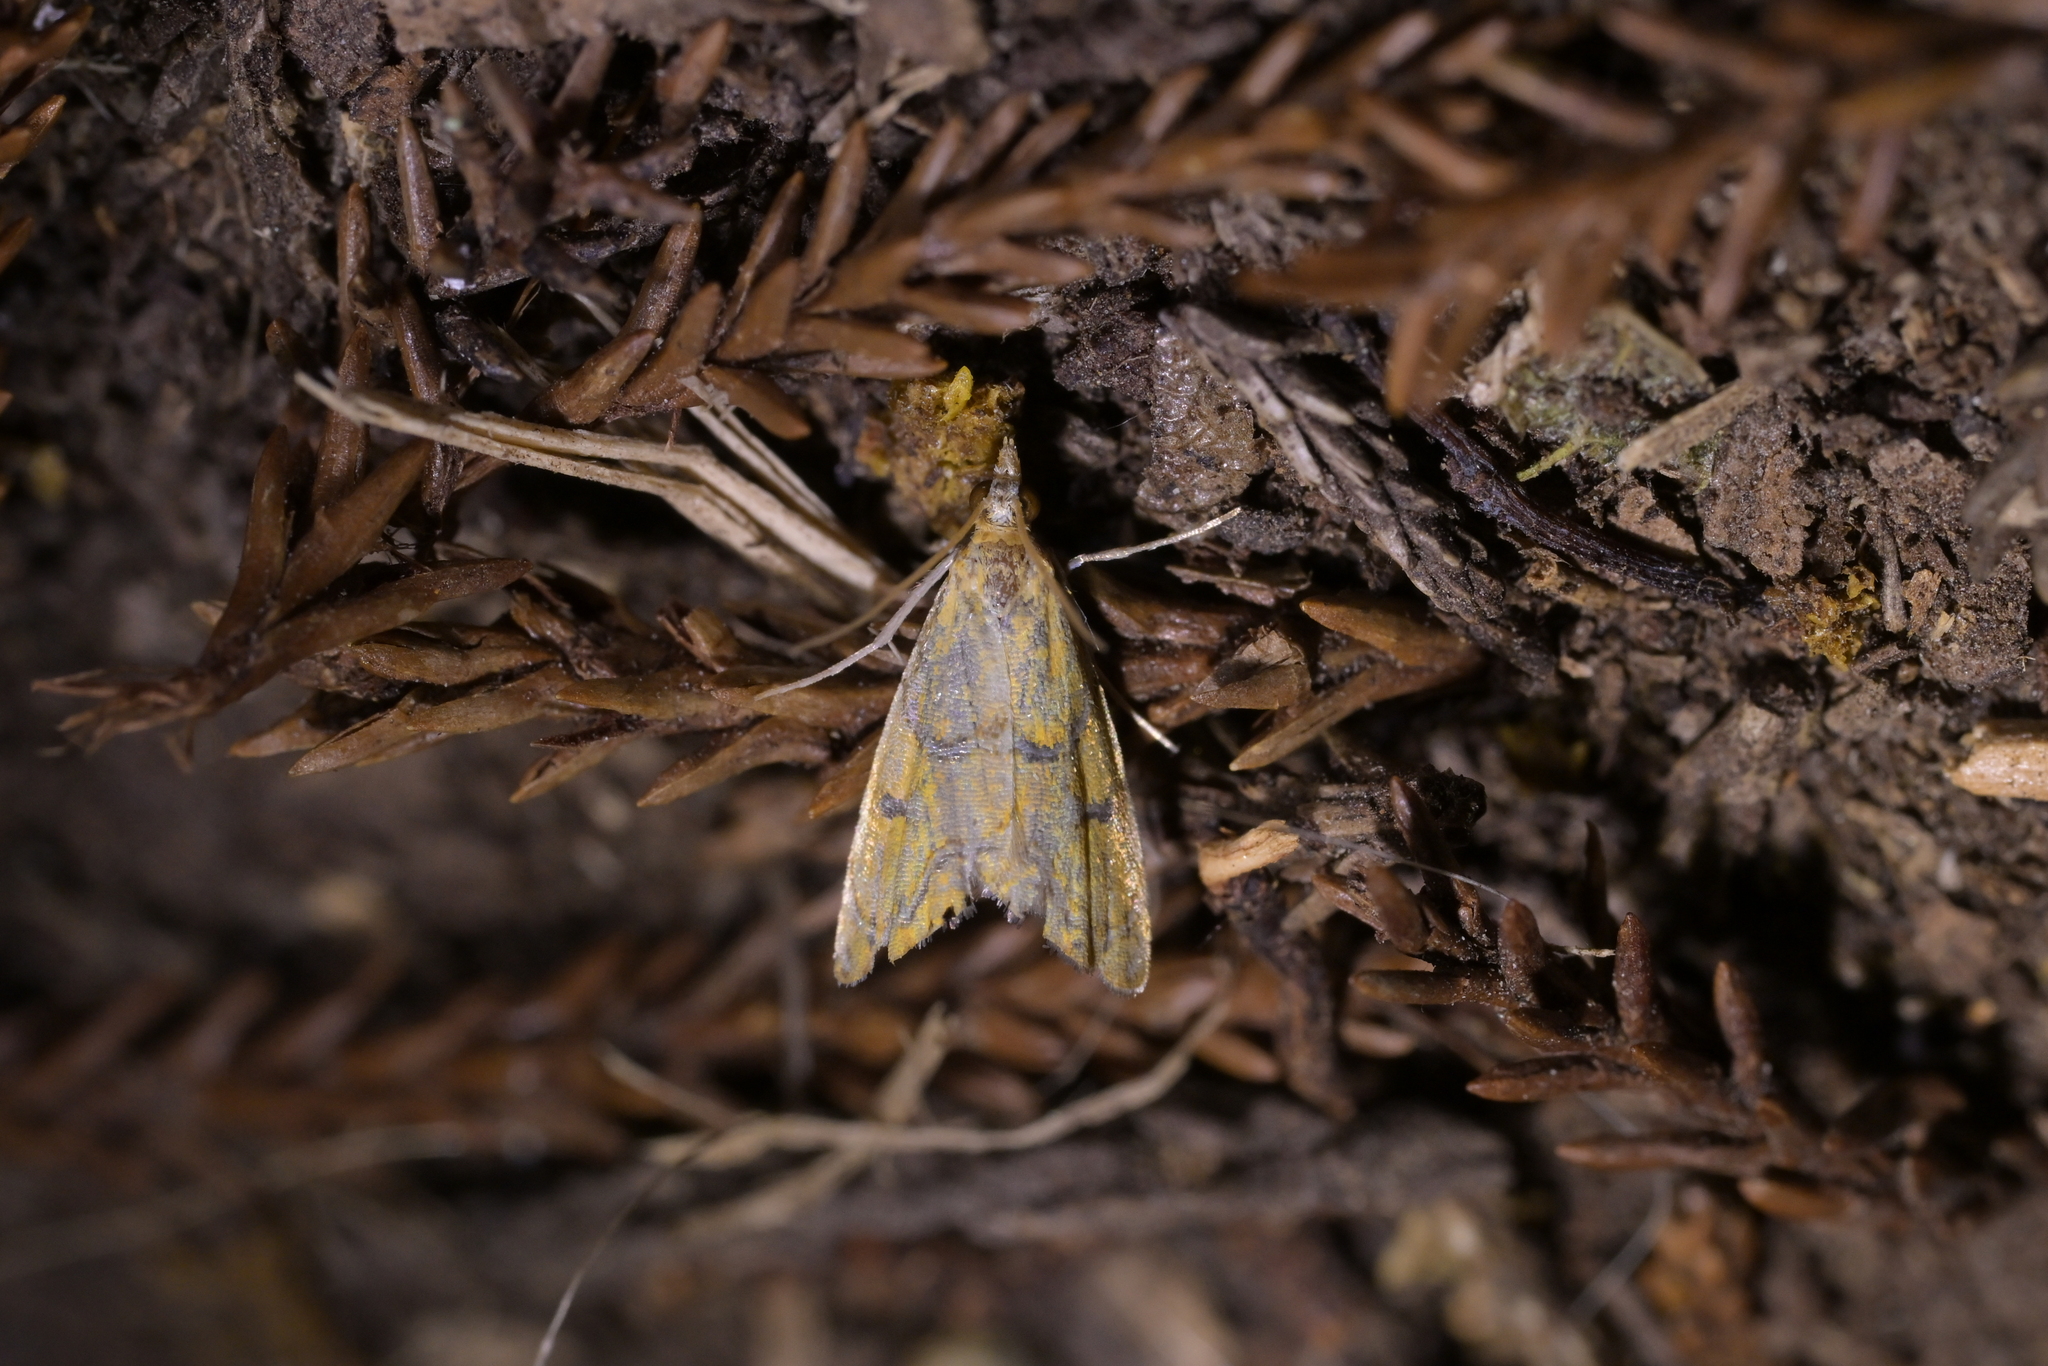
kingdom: Animalia
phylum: Arthropoda
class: Insecta
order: Lepidoptera
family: Crambidae
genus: Glaucocharis
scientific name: Glaucocharis auriscriptella
